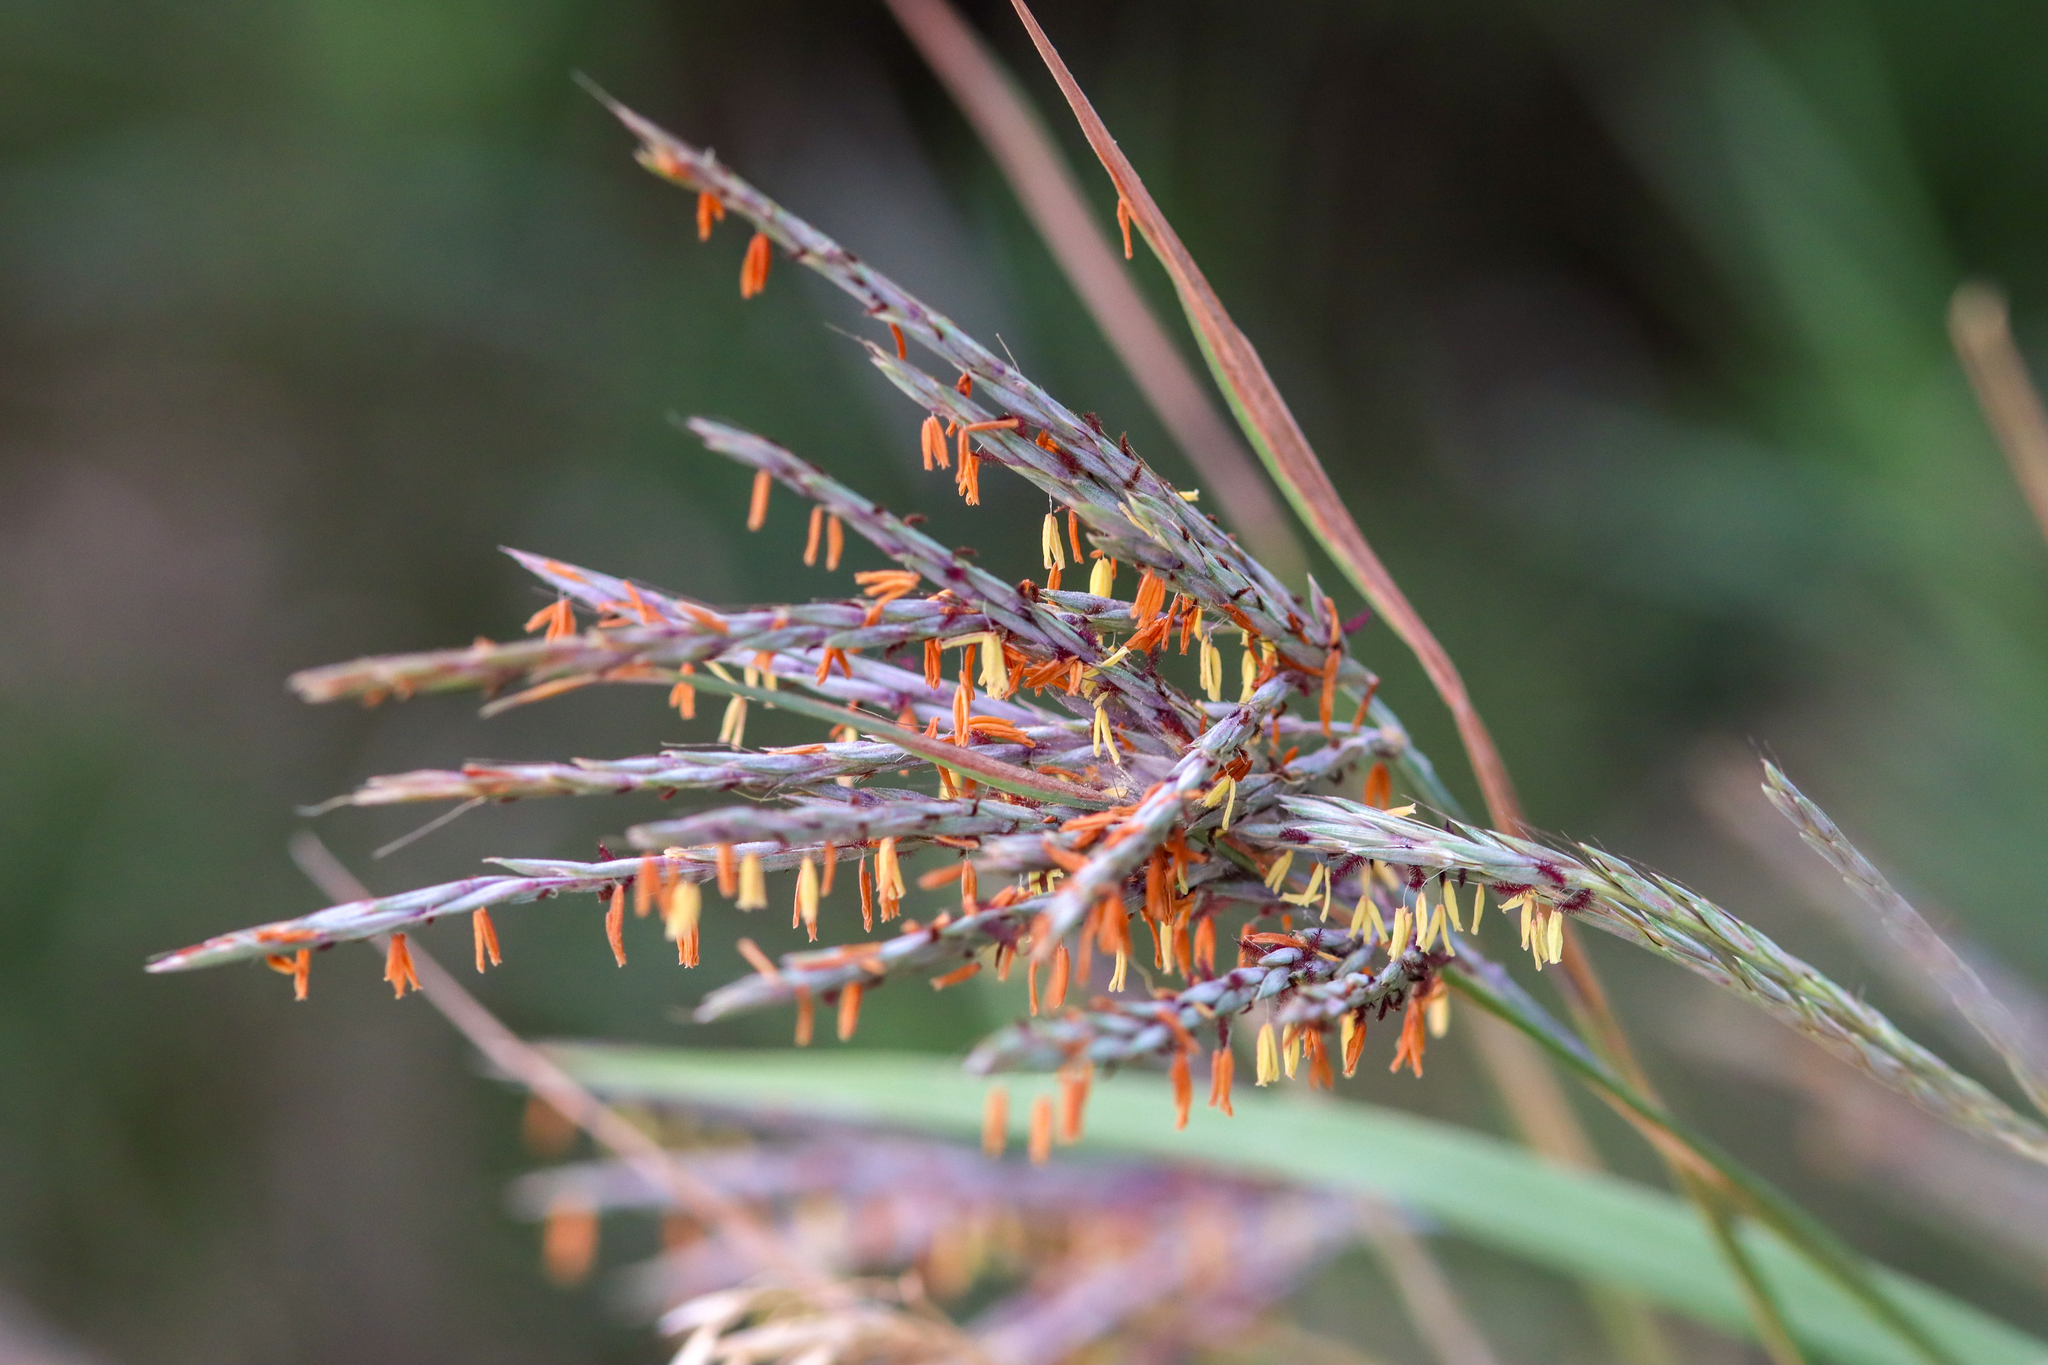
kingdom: Plantae
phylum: Tracheophyta
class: Liliopsida
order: Poales
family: Poaceae
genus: Andropogon
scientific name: Andropogon gerardi
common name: Big bluestem
